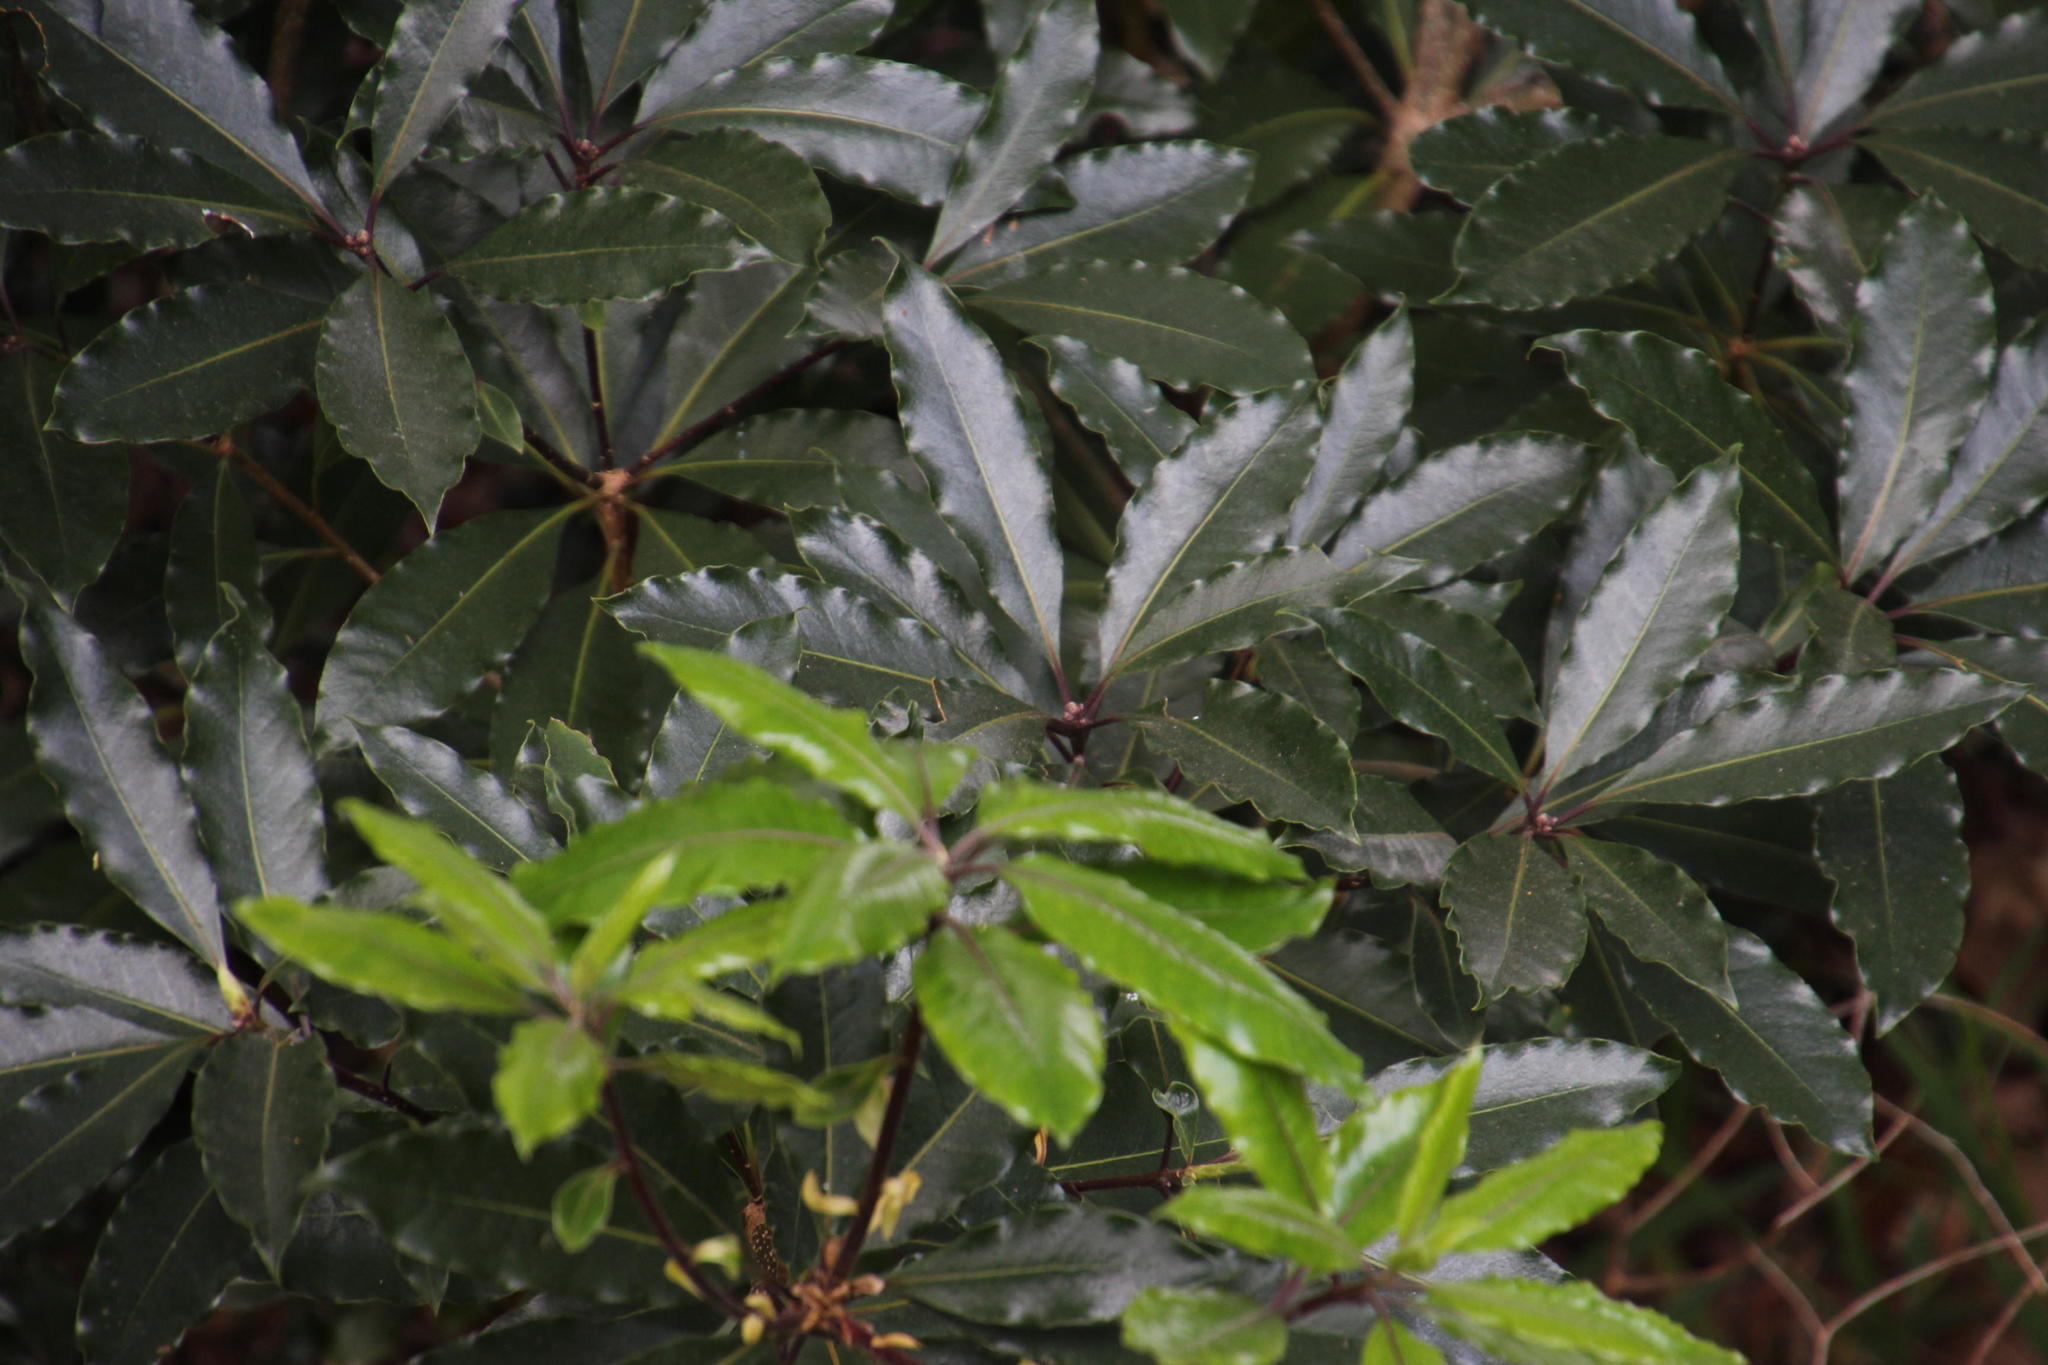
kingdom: Plantae
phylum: Tracheophyta
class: Magnoliopsida
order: Apiales
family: Pittosporaceae
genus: Pittosporum
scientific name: Pittosporum undulatum
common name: Australian cheesewood
